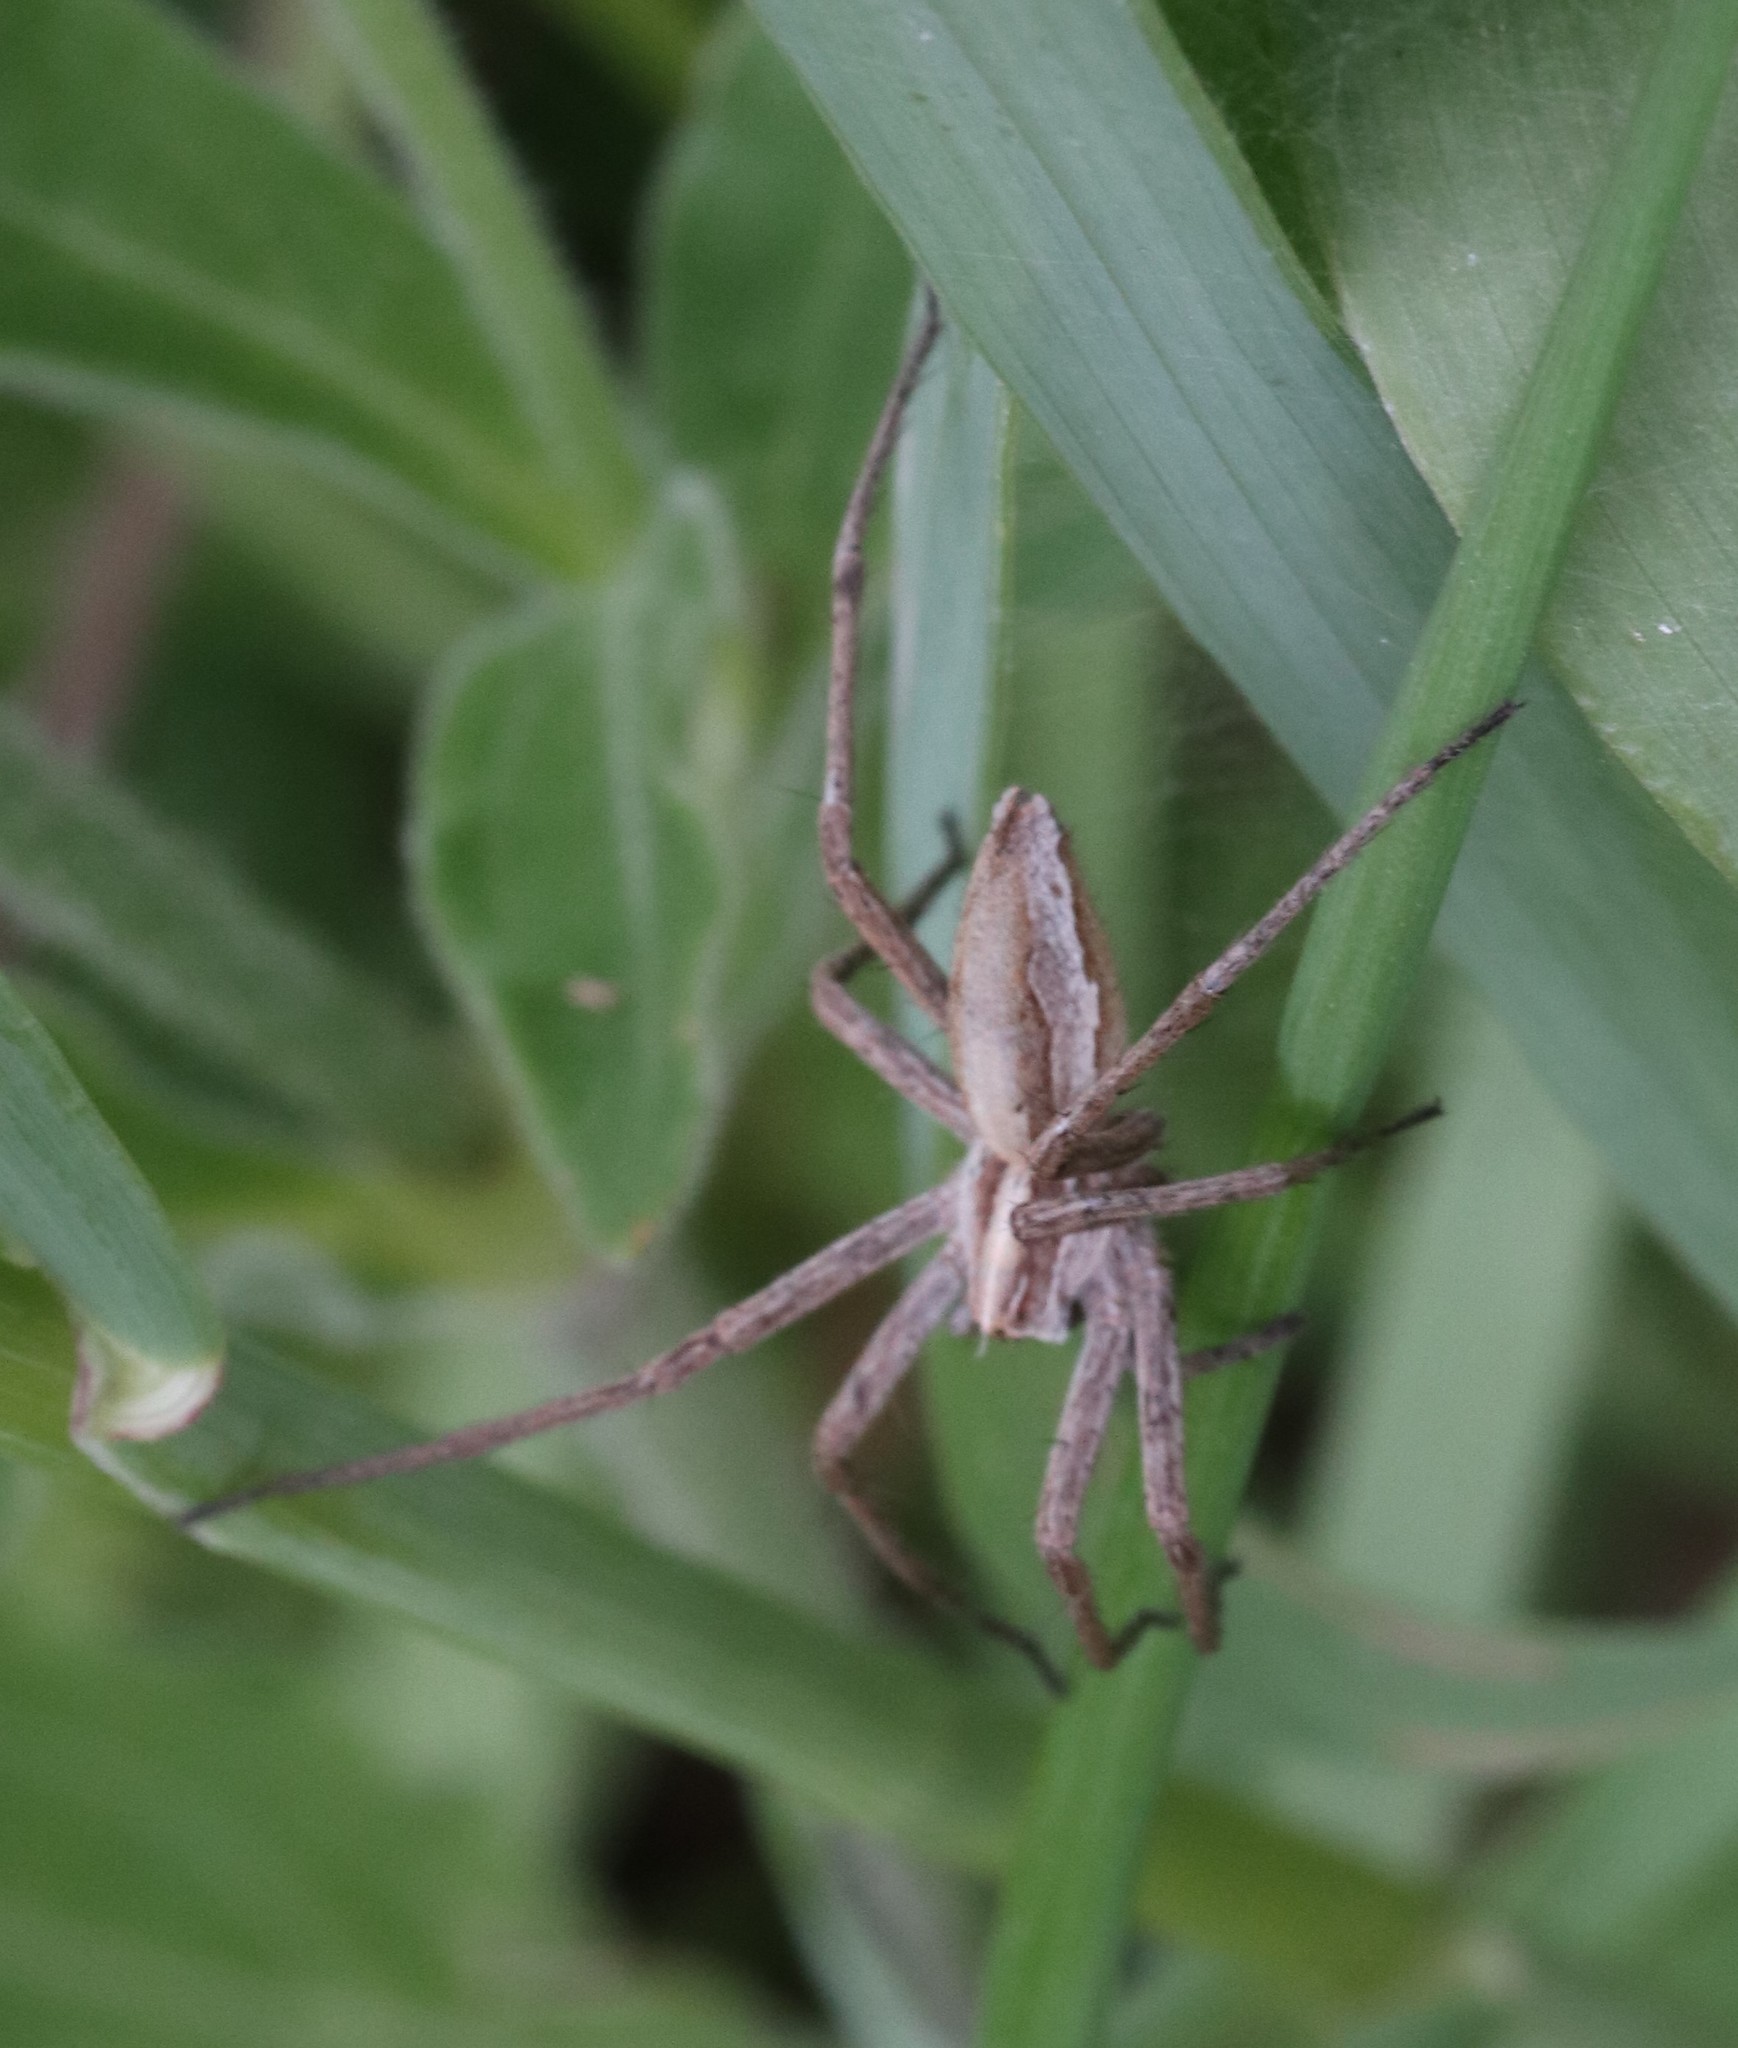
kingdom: Animalia
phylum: Arthropoda
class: Arachnida
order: Araneae
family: Pisauridae
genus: Pisaura
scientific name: Pisaura mirabilis
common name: Tent spider
